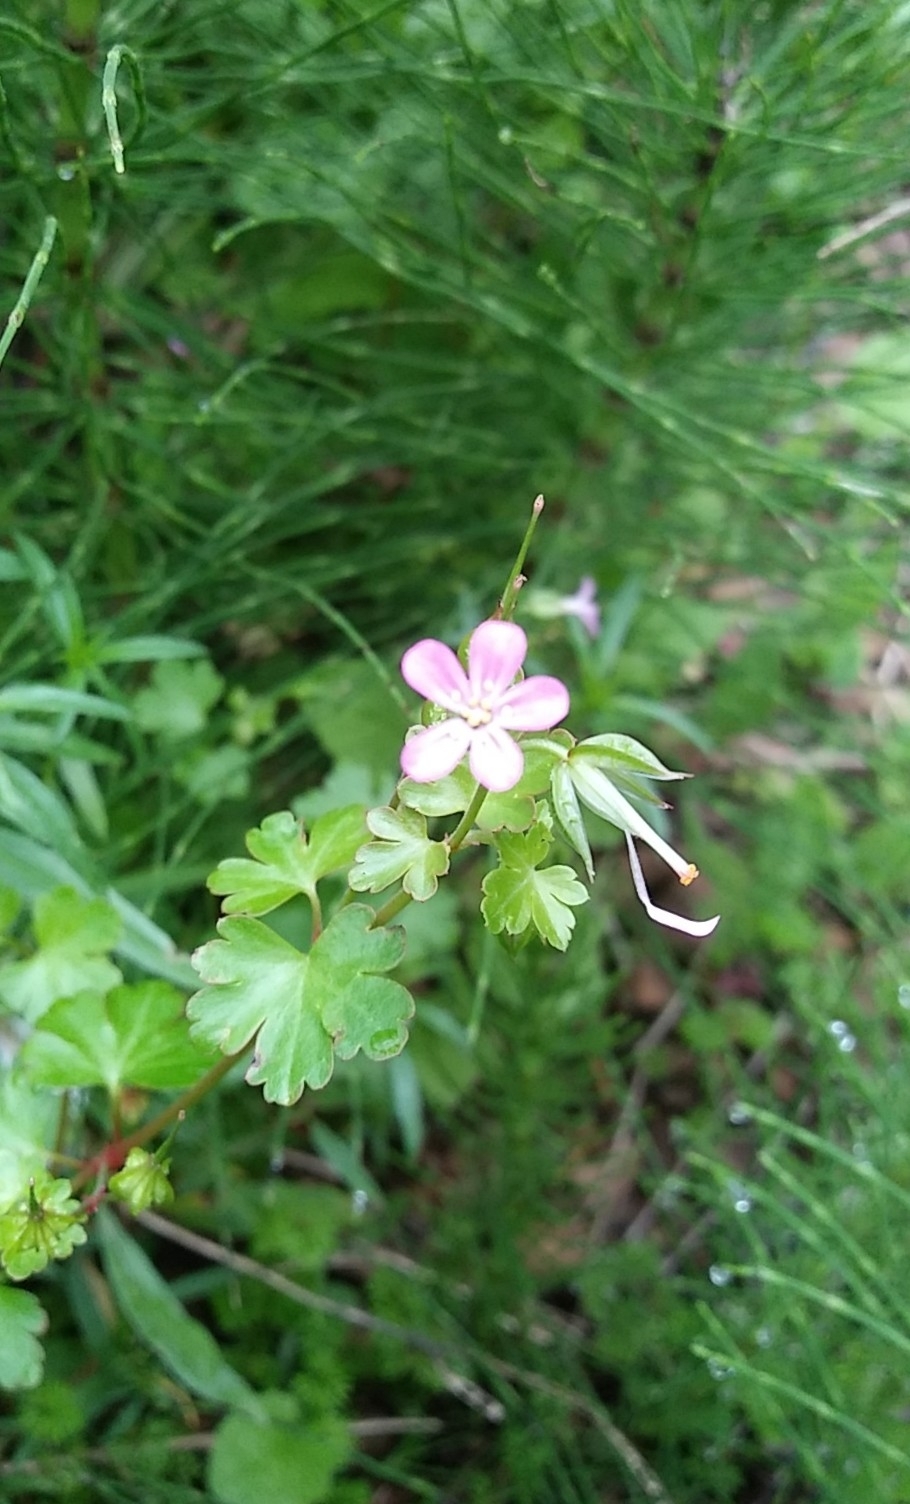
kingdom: Plantae
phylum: Tracheophyta
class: Magnoliopsida
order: Geraniales
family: Geraniaceae
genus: Geranium
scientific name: Geranium lucidum
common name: Shining crane's-bill
